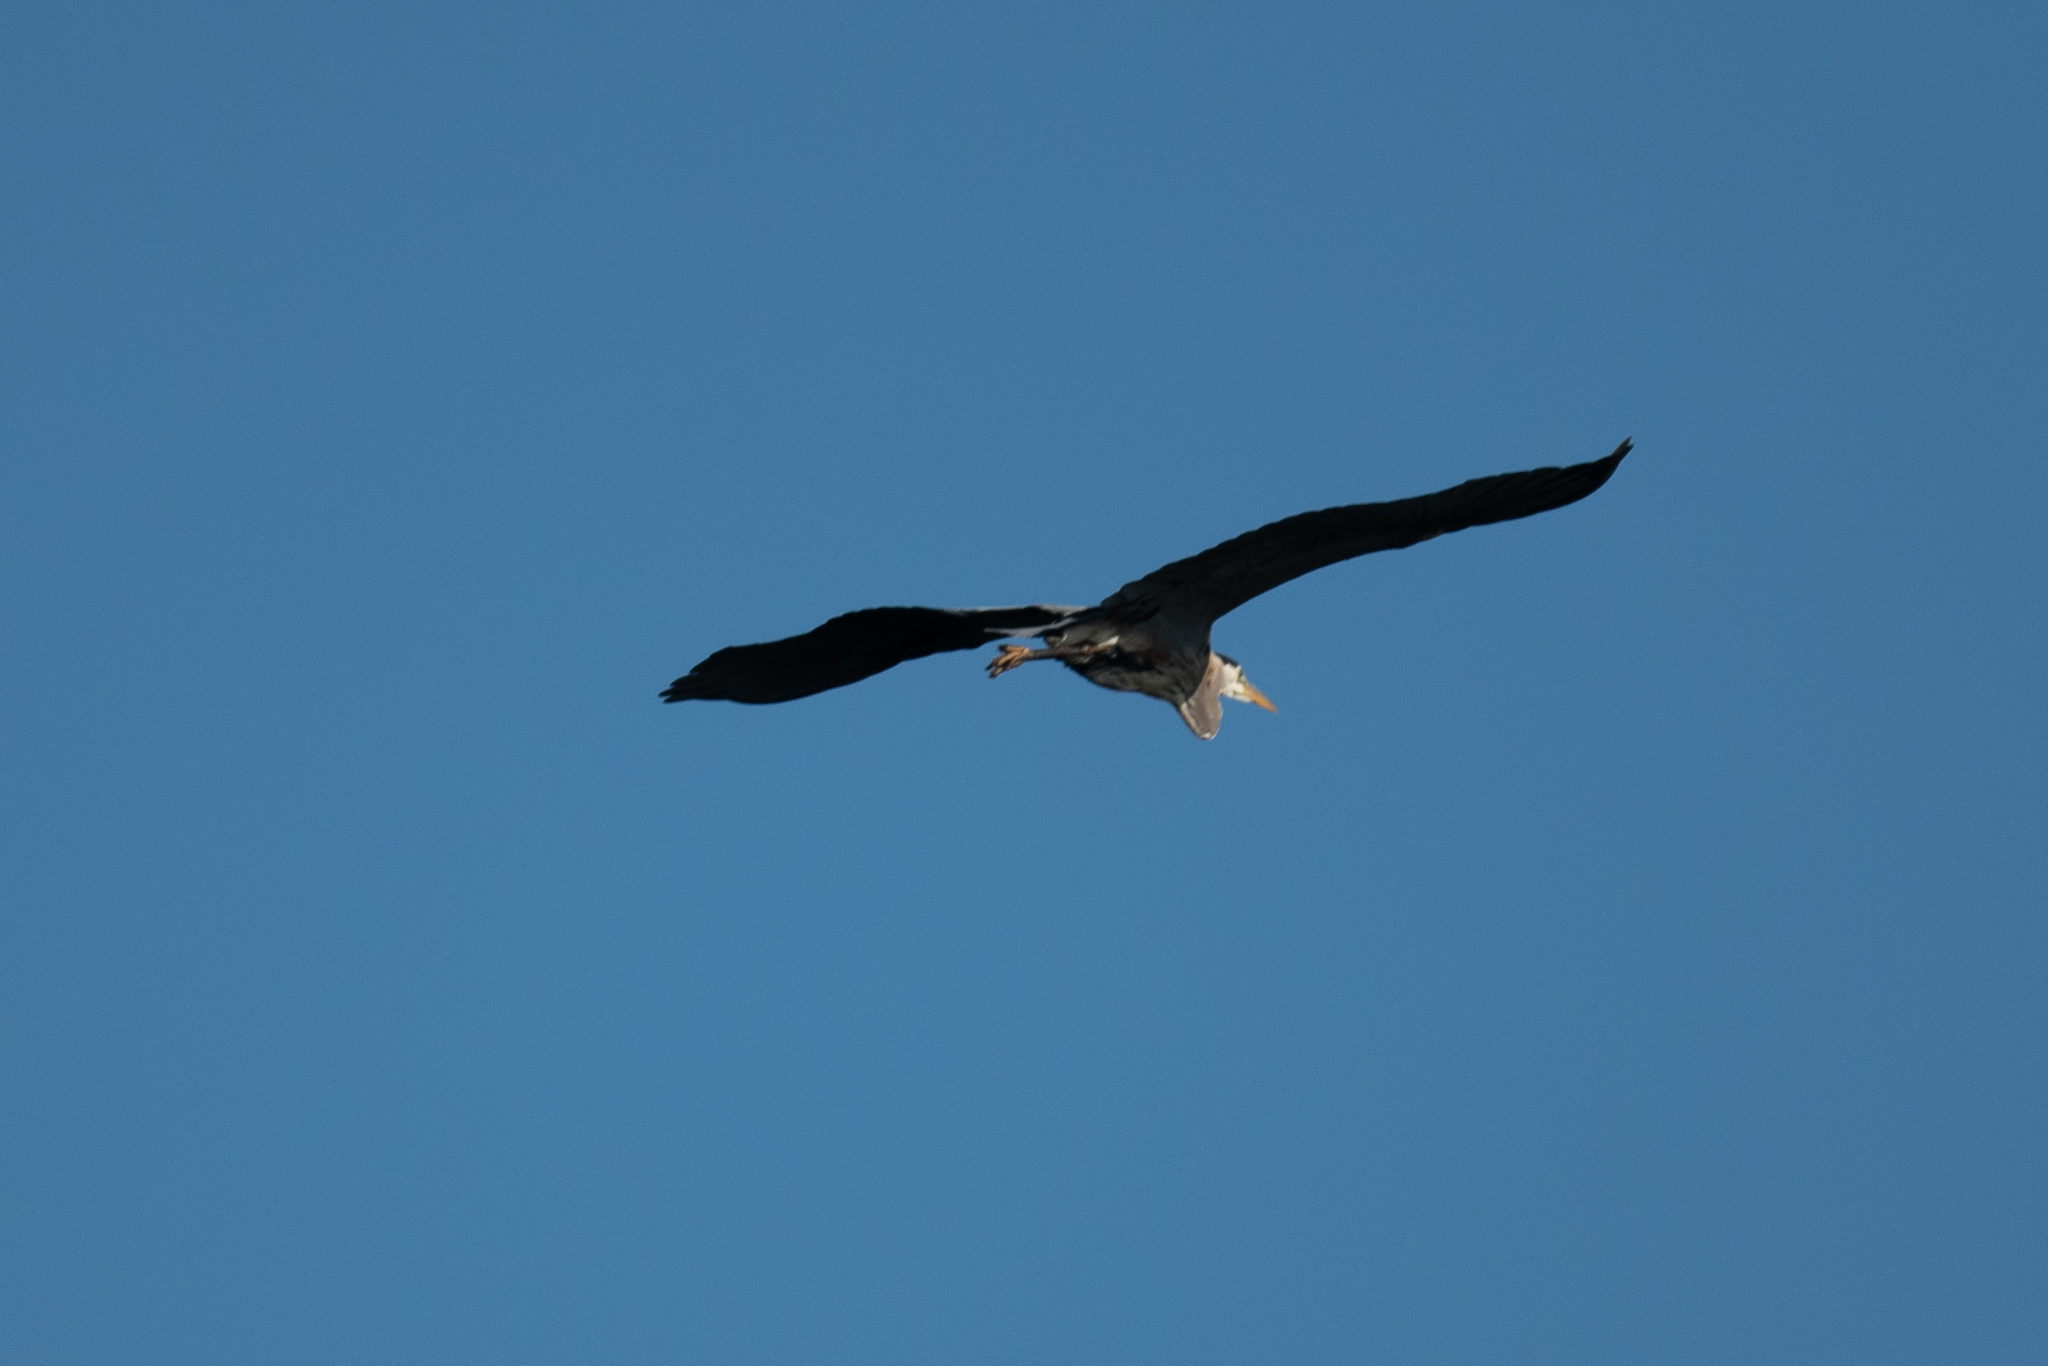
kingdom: Animalia
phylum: Chordata
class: Aves
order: Pelecaniformes
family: Ardeidae
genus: Ardea
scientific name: Ardea herodias
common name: Great blue heron
